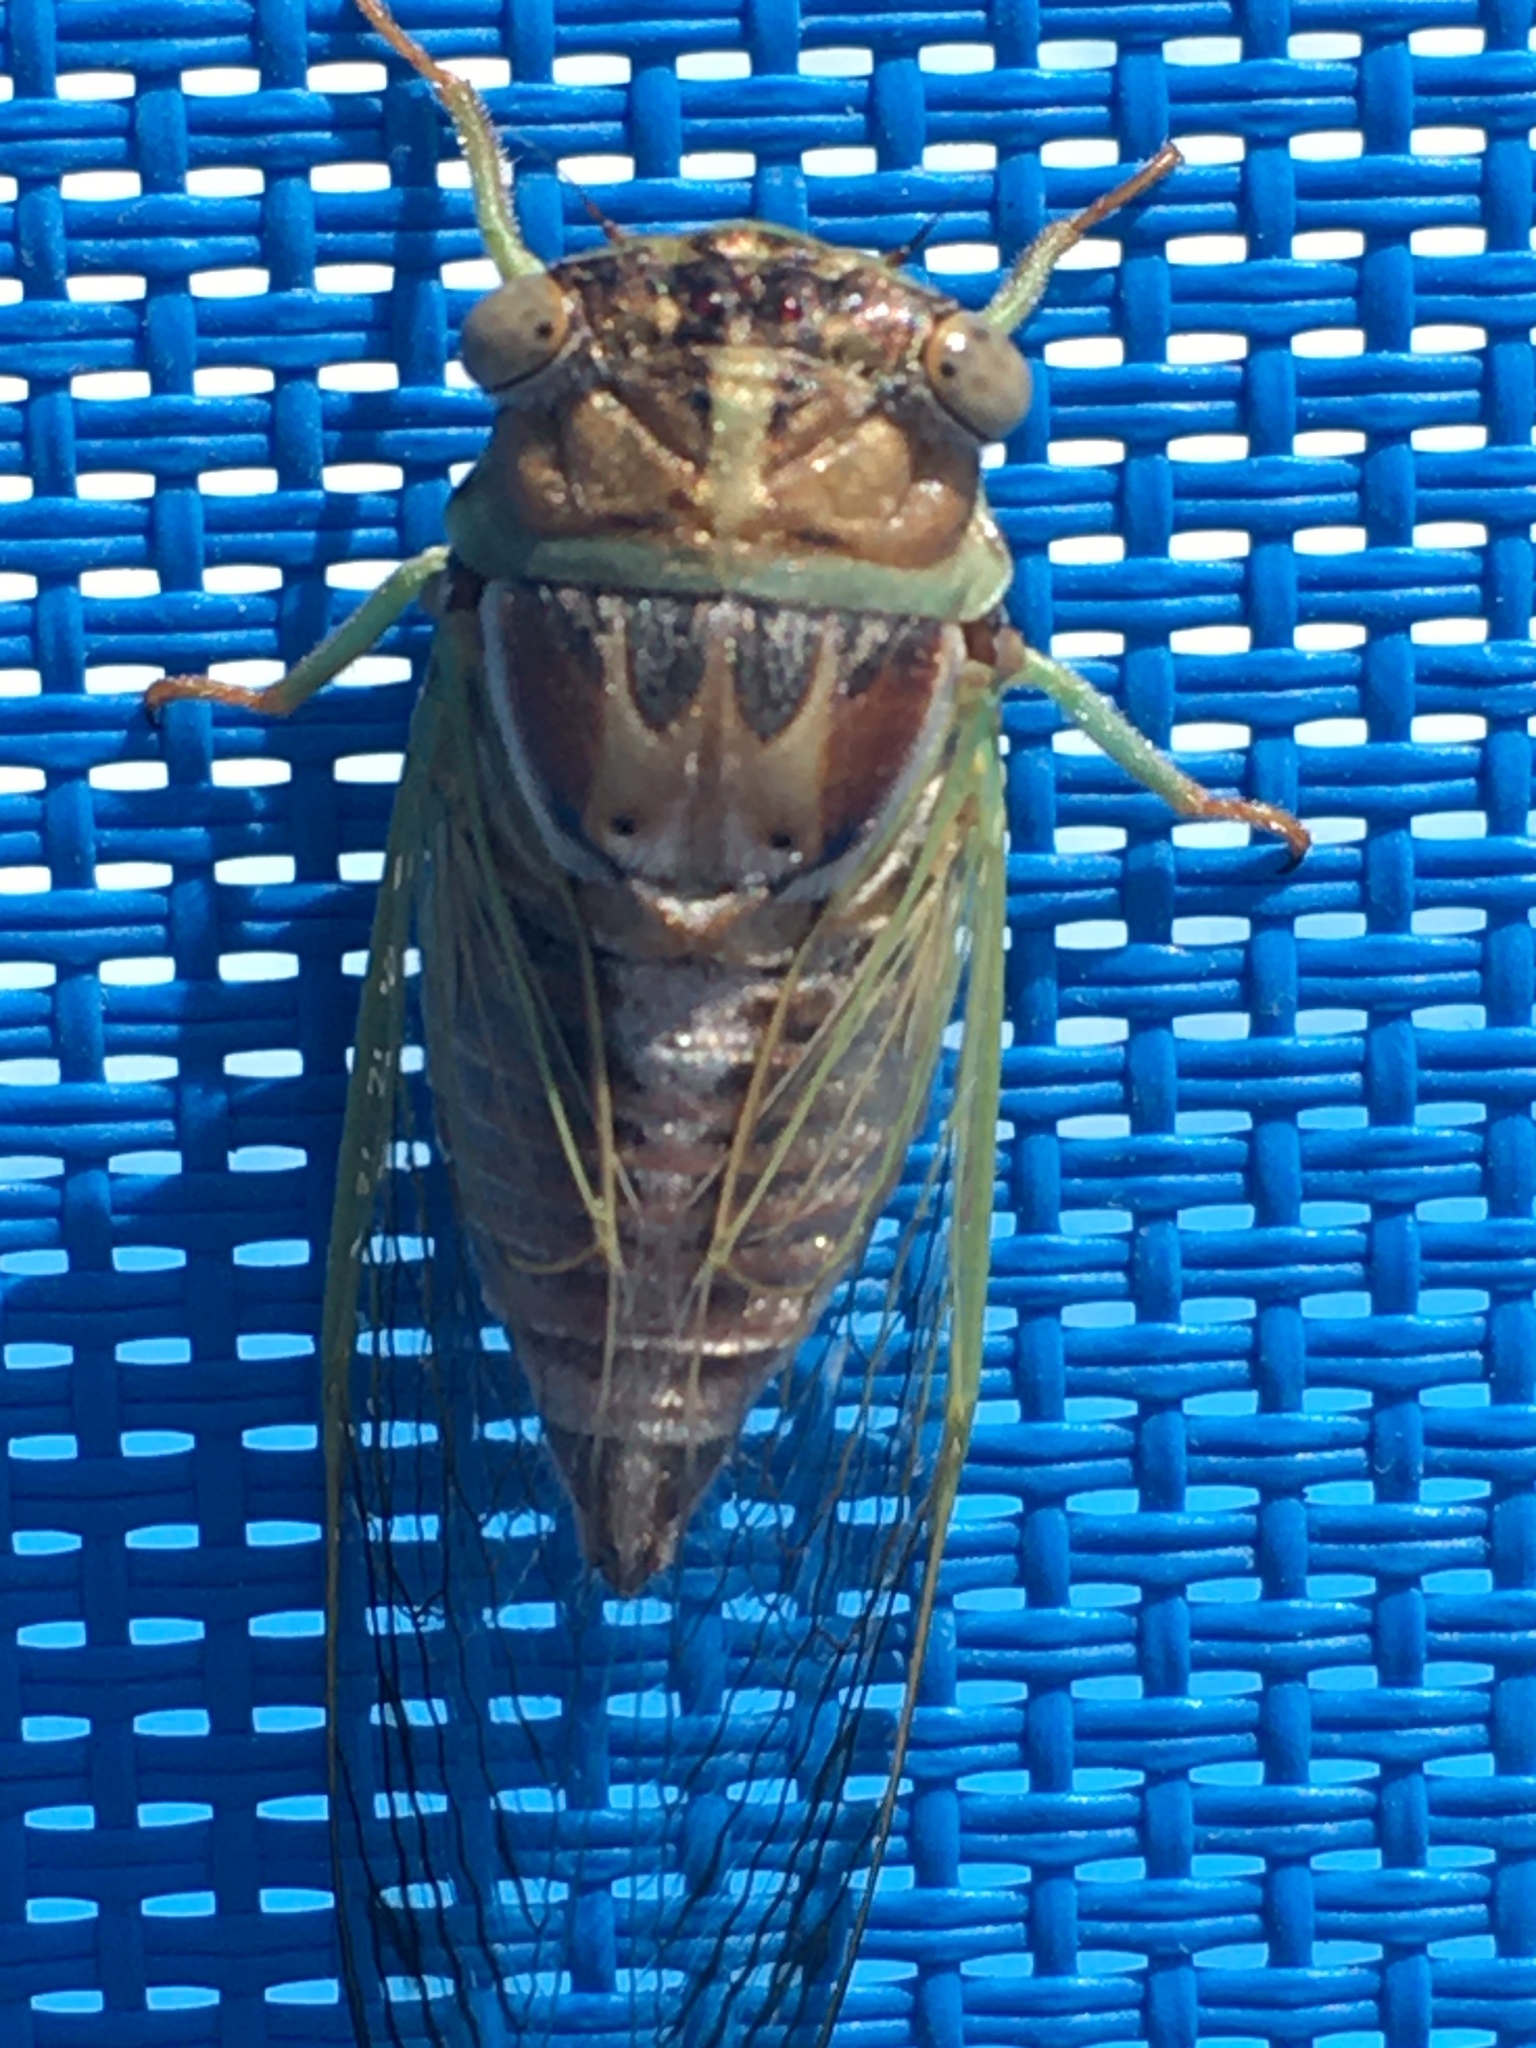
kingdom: Animalia
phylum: Arthropoda
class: Insecta
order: Hemiptera
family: Cicadidae
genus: Diceroprocta
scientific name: Diceroprocta delicata
